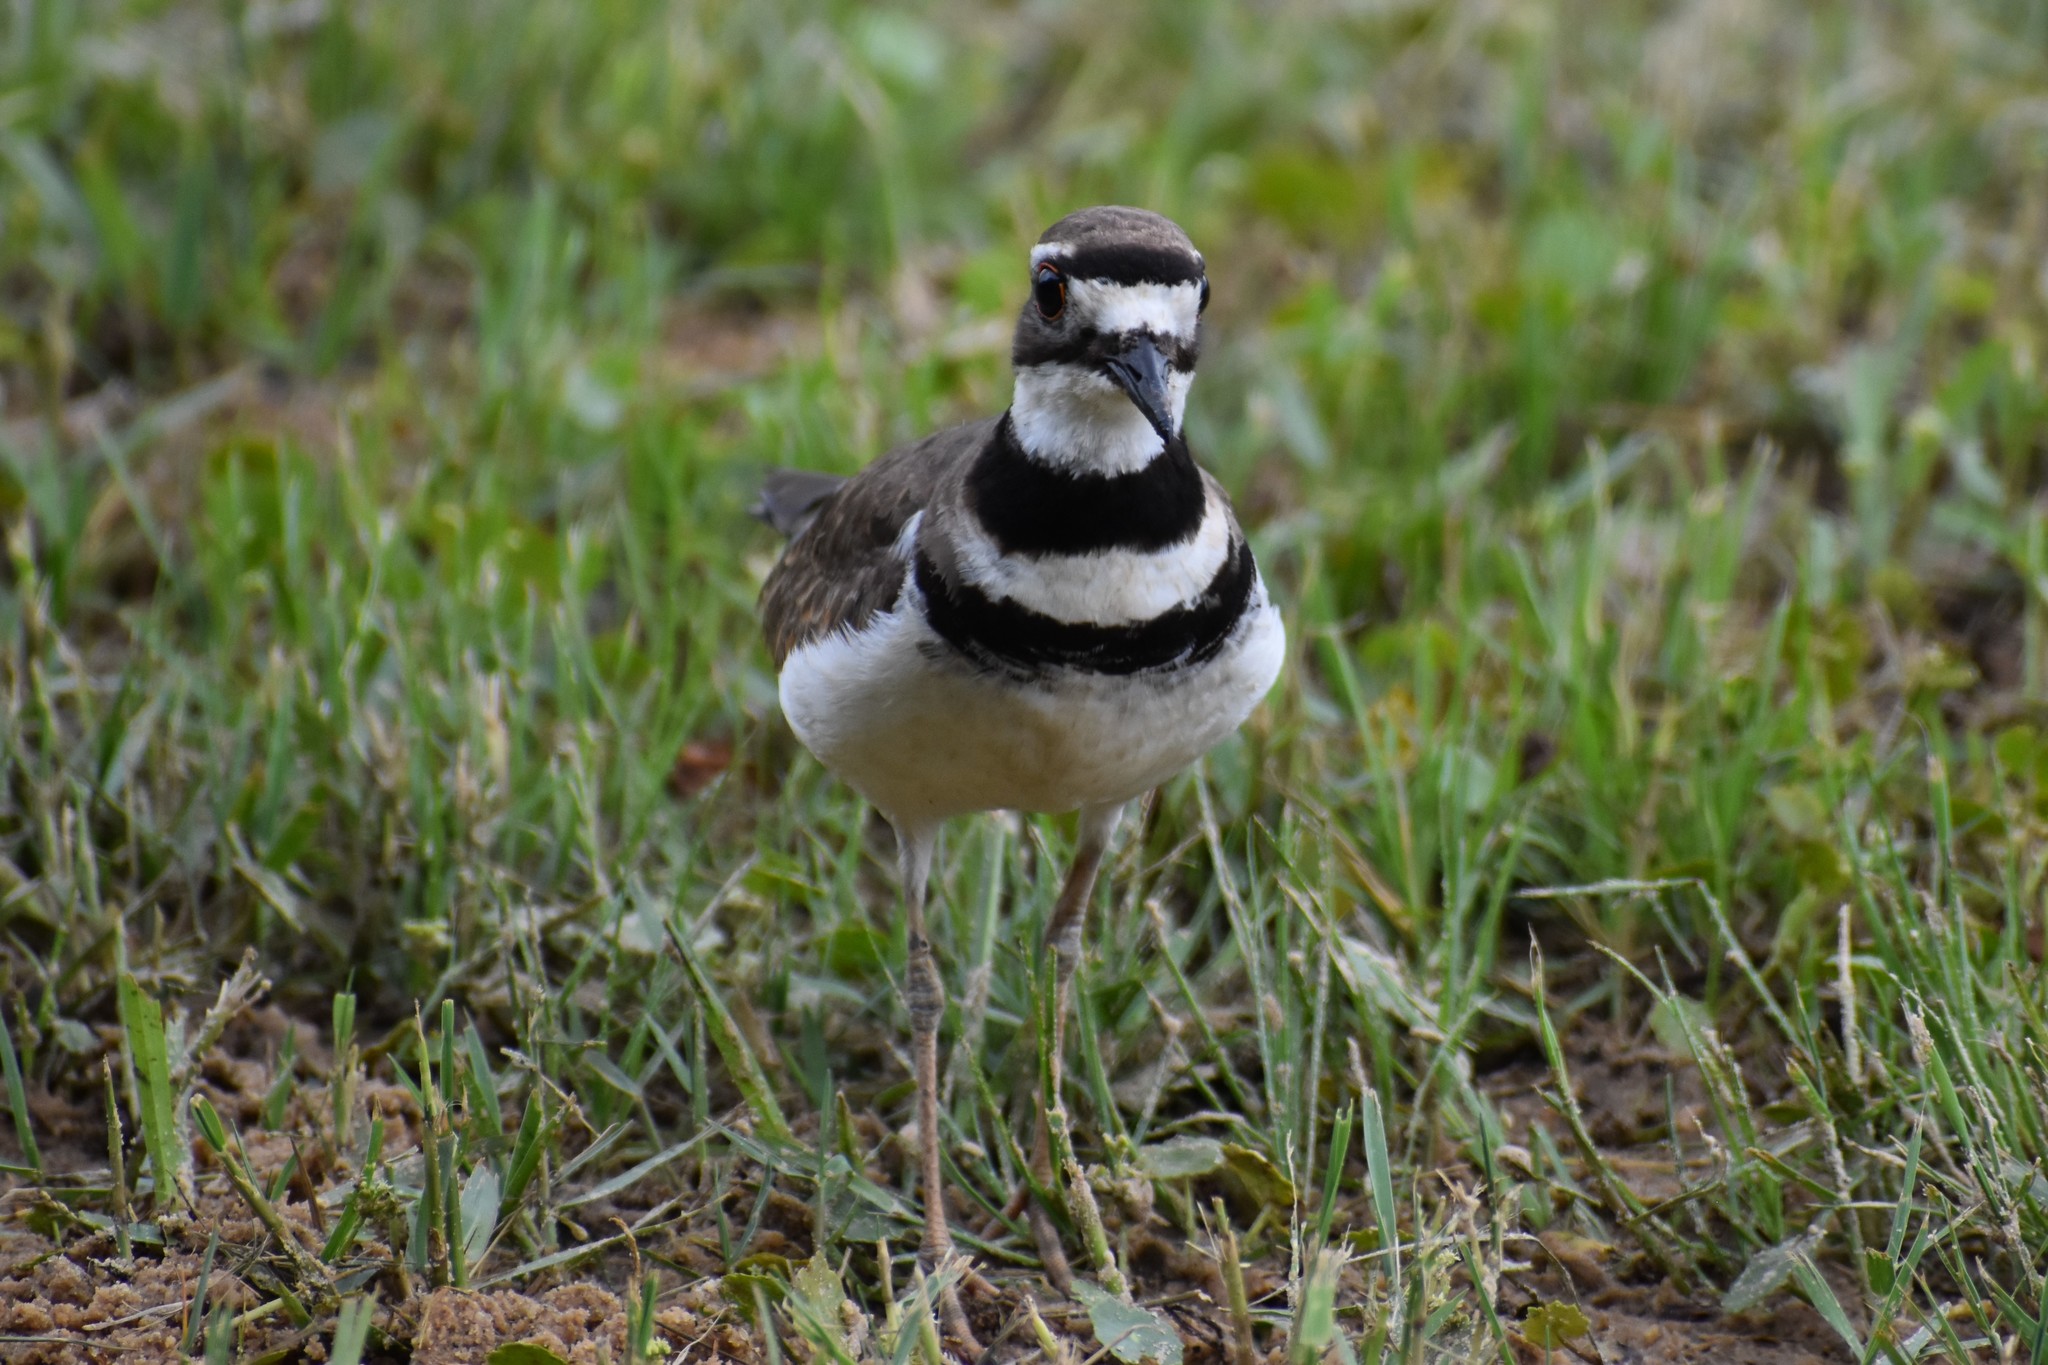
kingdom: Animalia
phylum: Chordata
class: Aves
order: Charadriiformes
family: Charadriidae
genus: Charadrius
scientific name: Charadrius vociferus
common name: Killdeer
